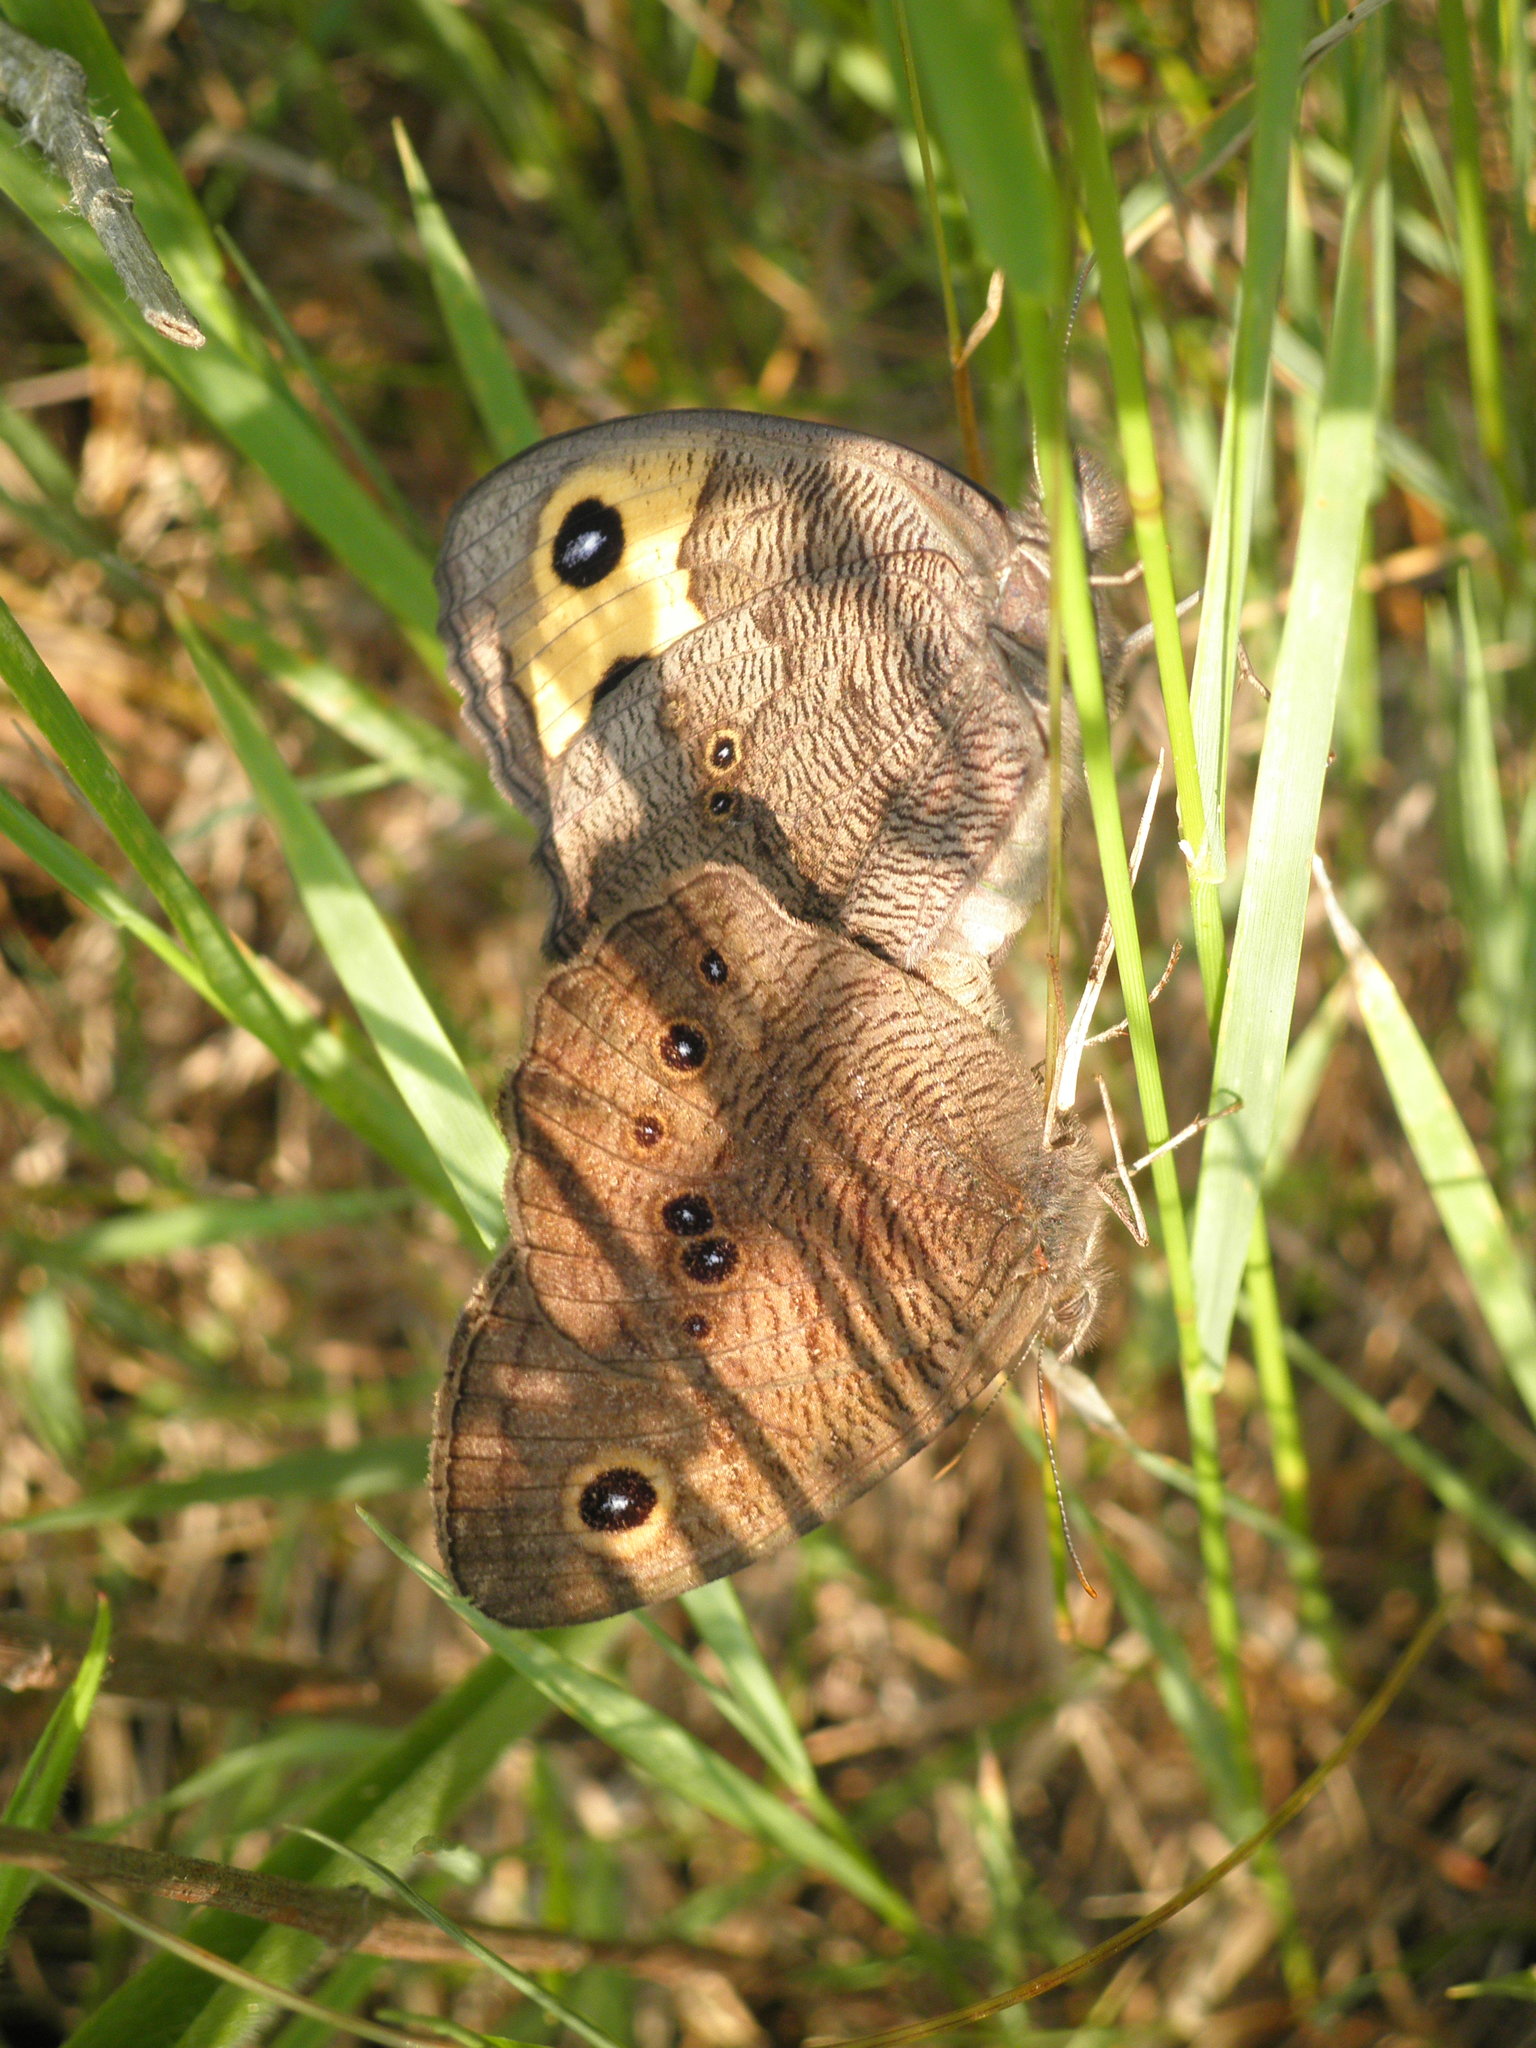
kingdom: Animalia
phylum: Arthropoda
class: Insecta
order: Lepidoptera
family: Nymphalidae
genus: Cercyonis
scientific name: Cercyonis pegala
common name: Common wood-nymph
